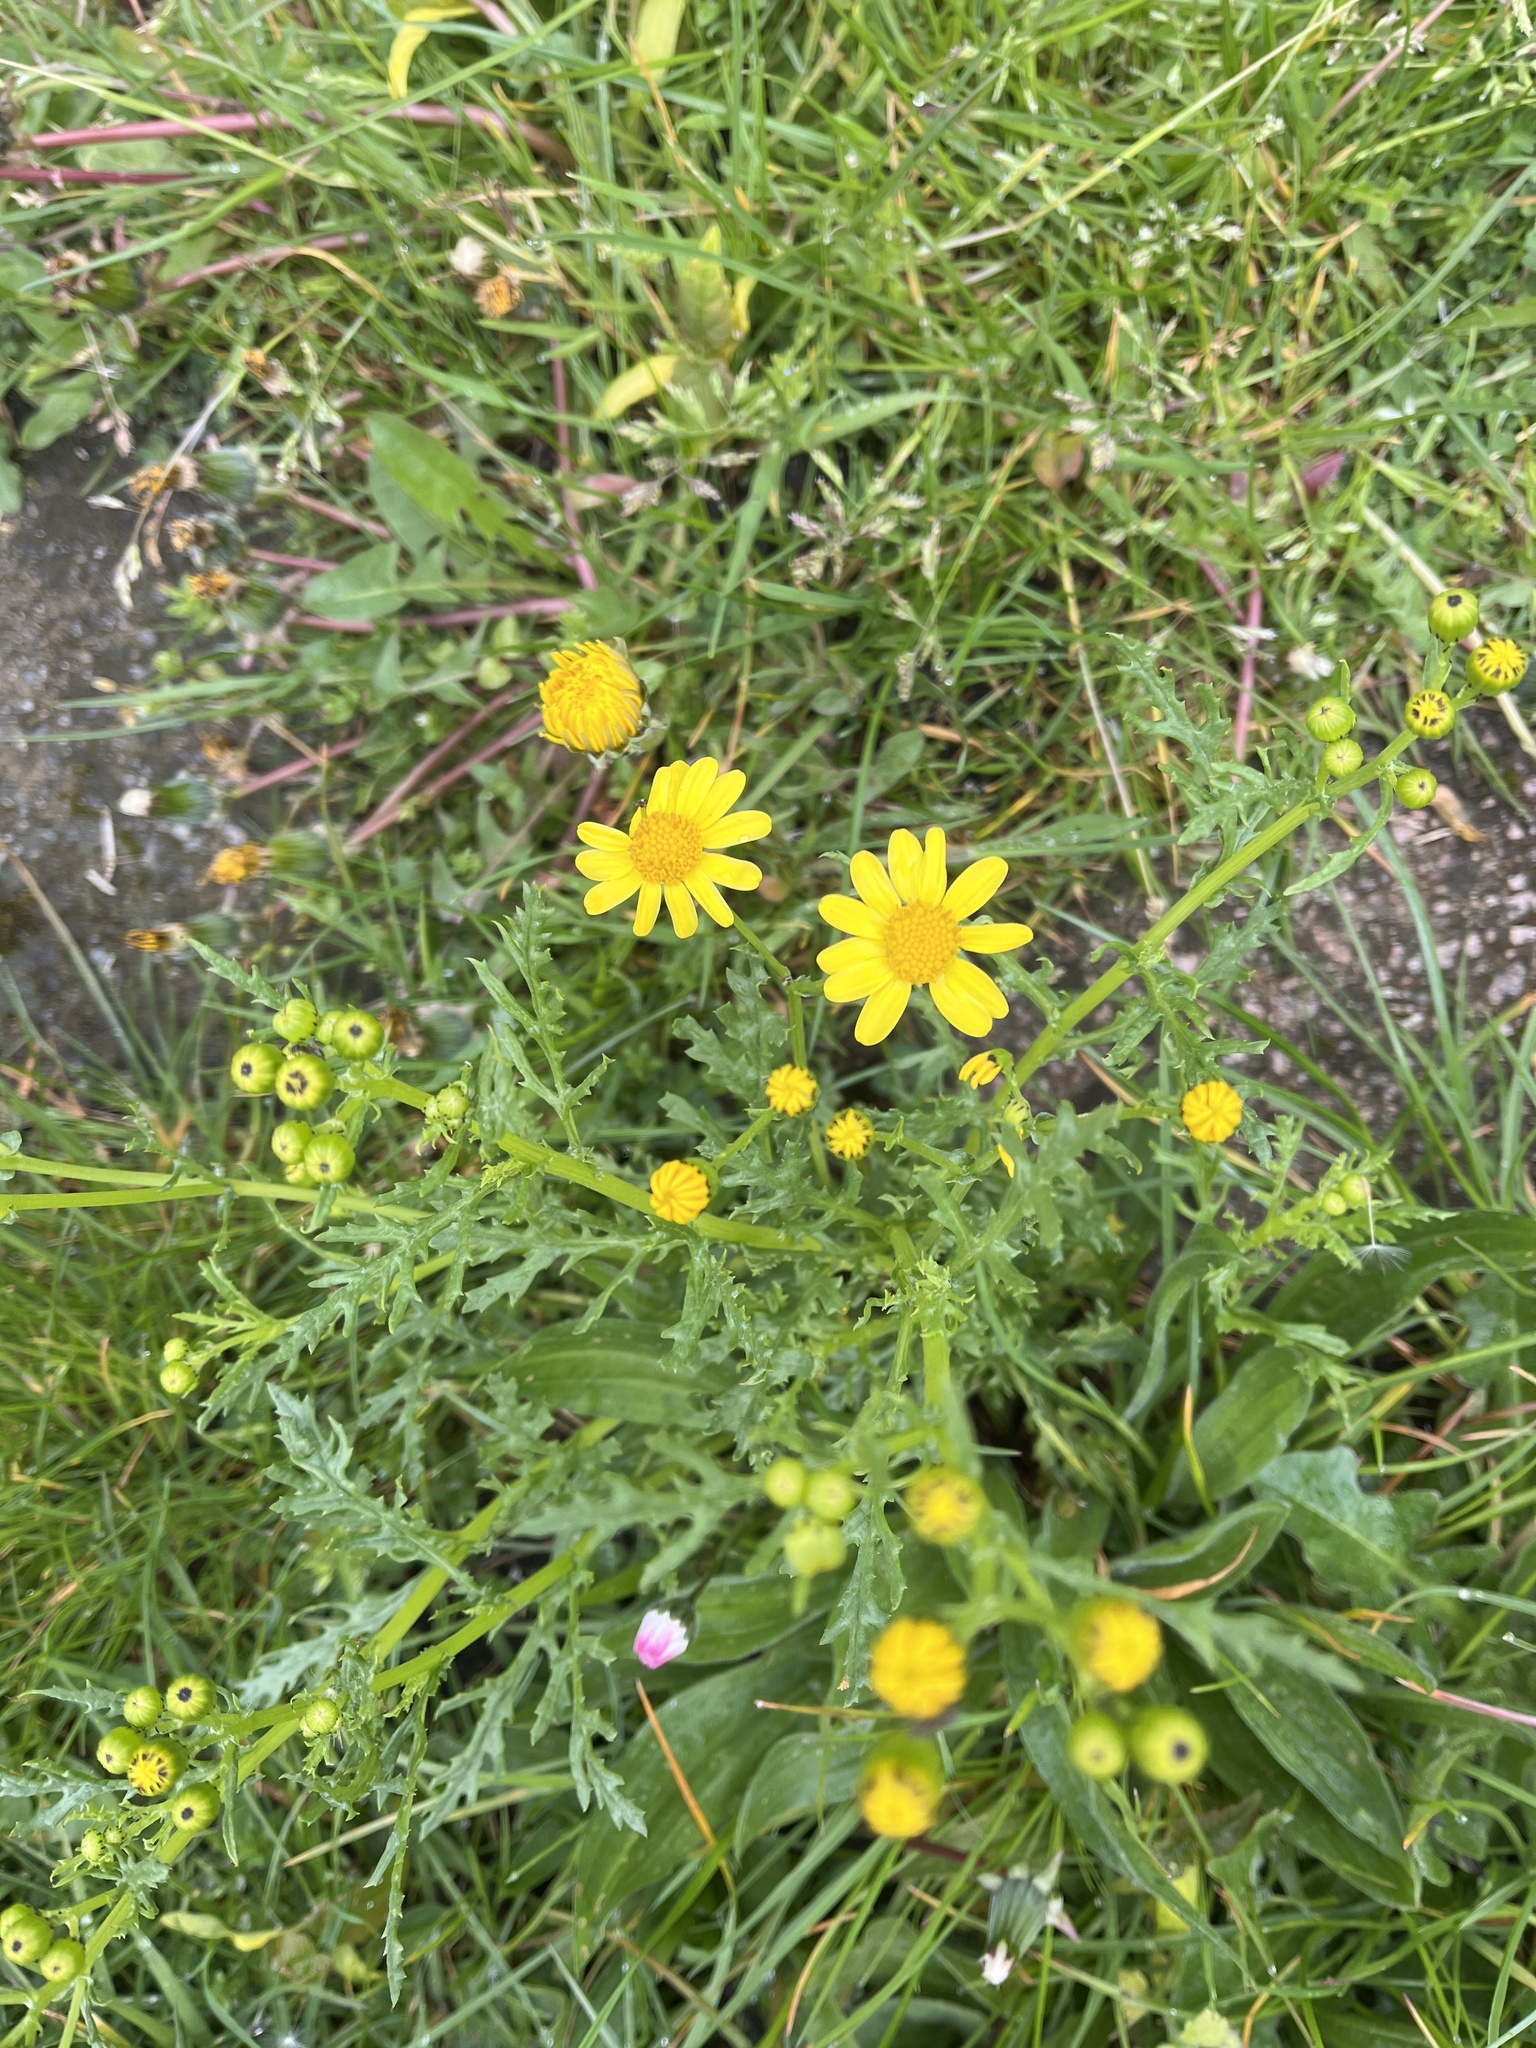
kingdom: Plantae
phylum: Tracheophyta
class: Magnoliopsida
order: Asterales
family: Asteraceae
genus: Senecio
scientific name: Senecio squalidus
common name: Oxford ragwort
